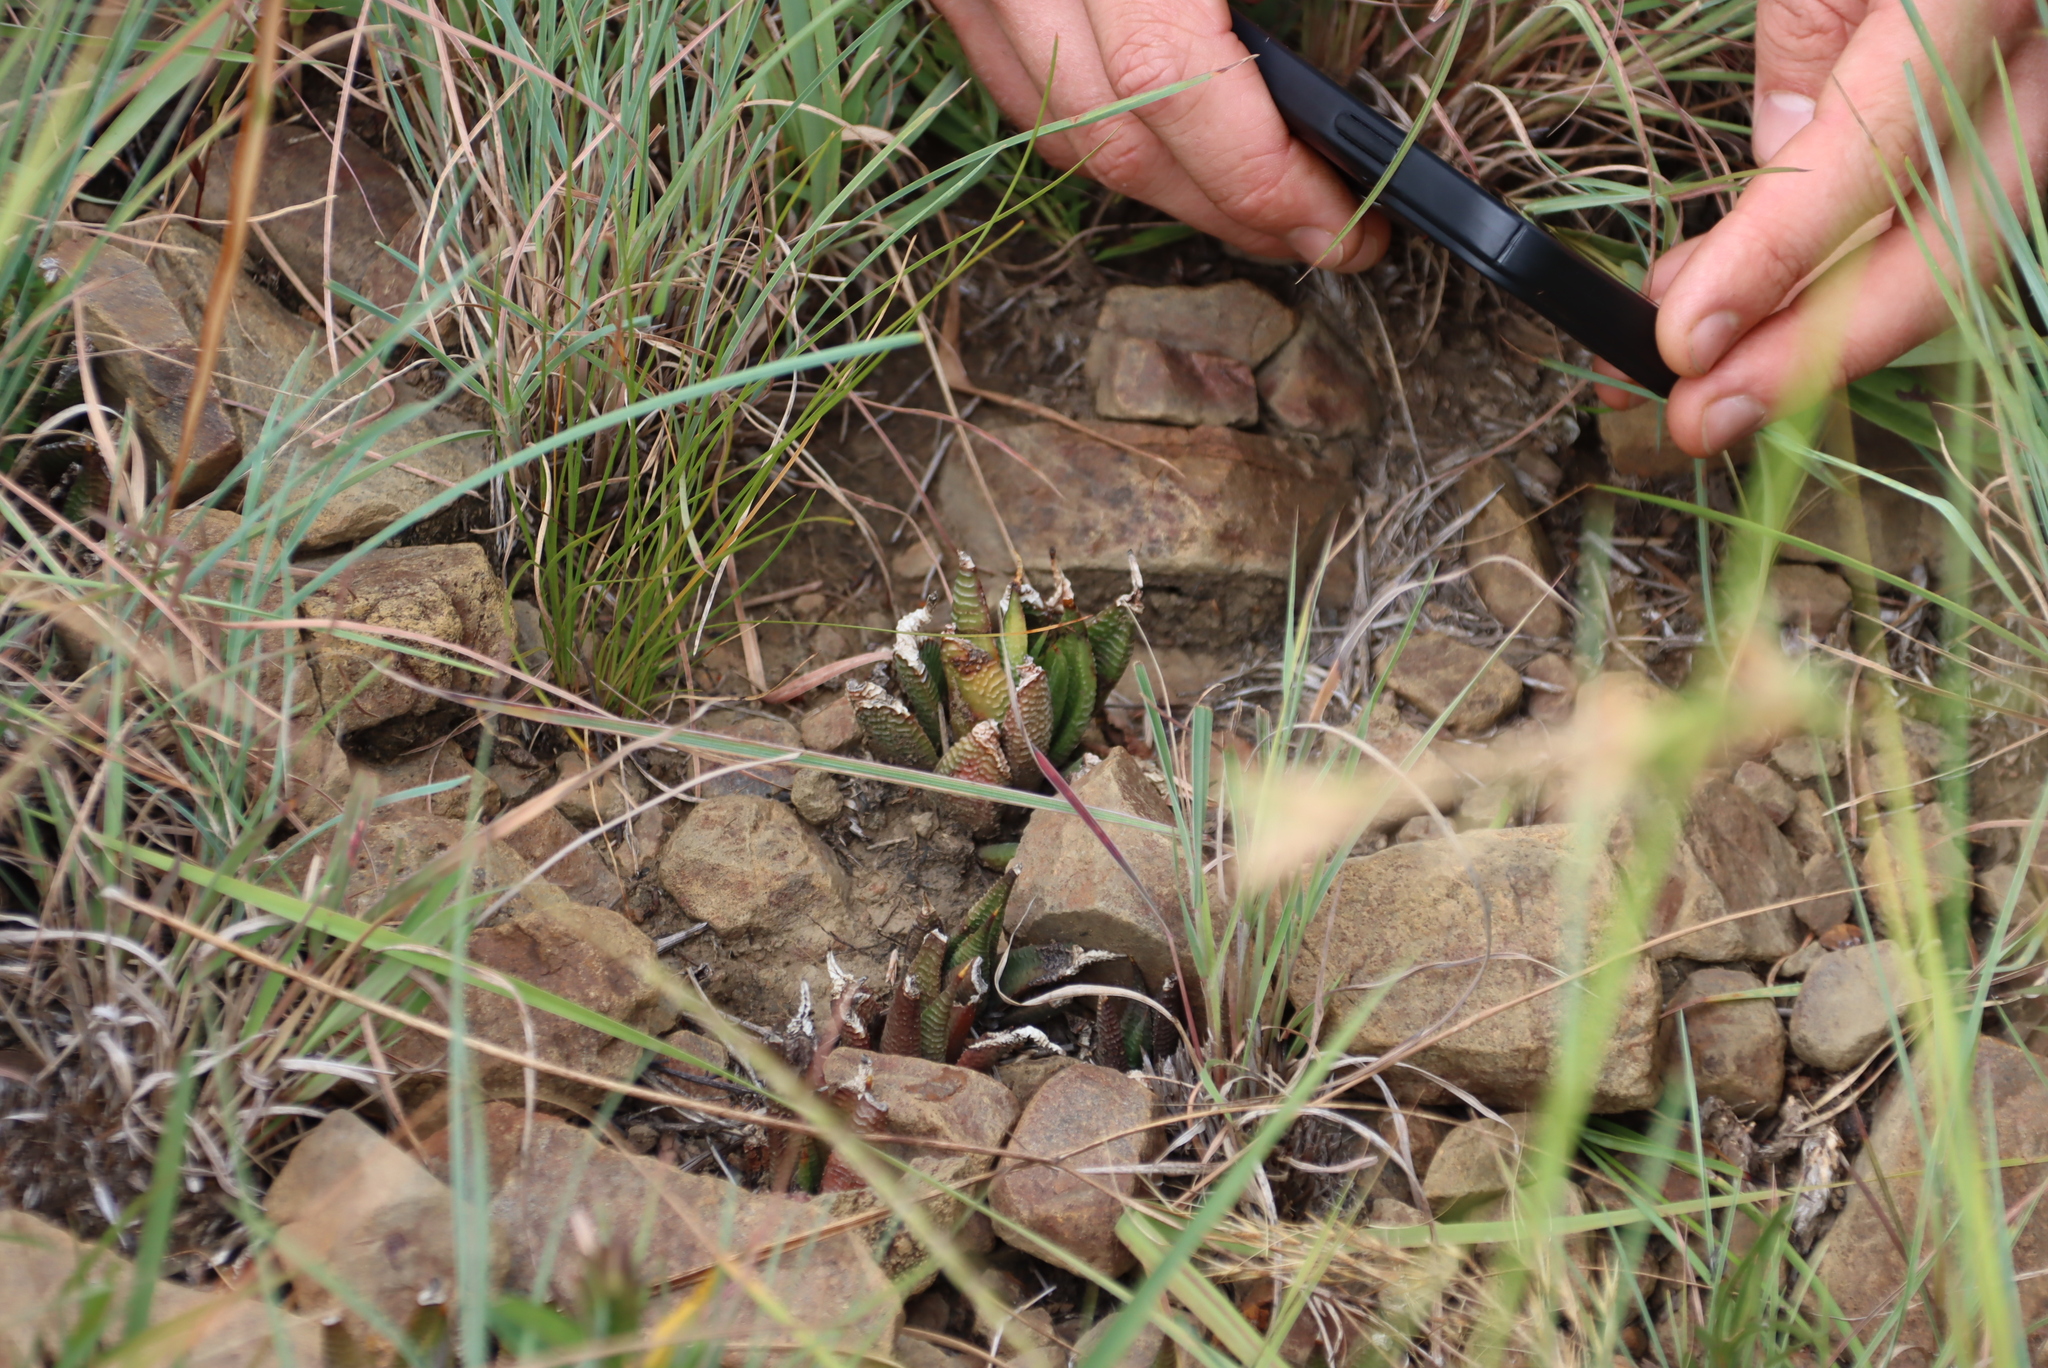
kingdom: Plantae
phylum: Tracheophyta
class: Liliopsida
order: Asparagales
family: Asphodelaceae
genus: Haworthiopsis
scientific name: Haworthiopsis limifolia
